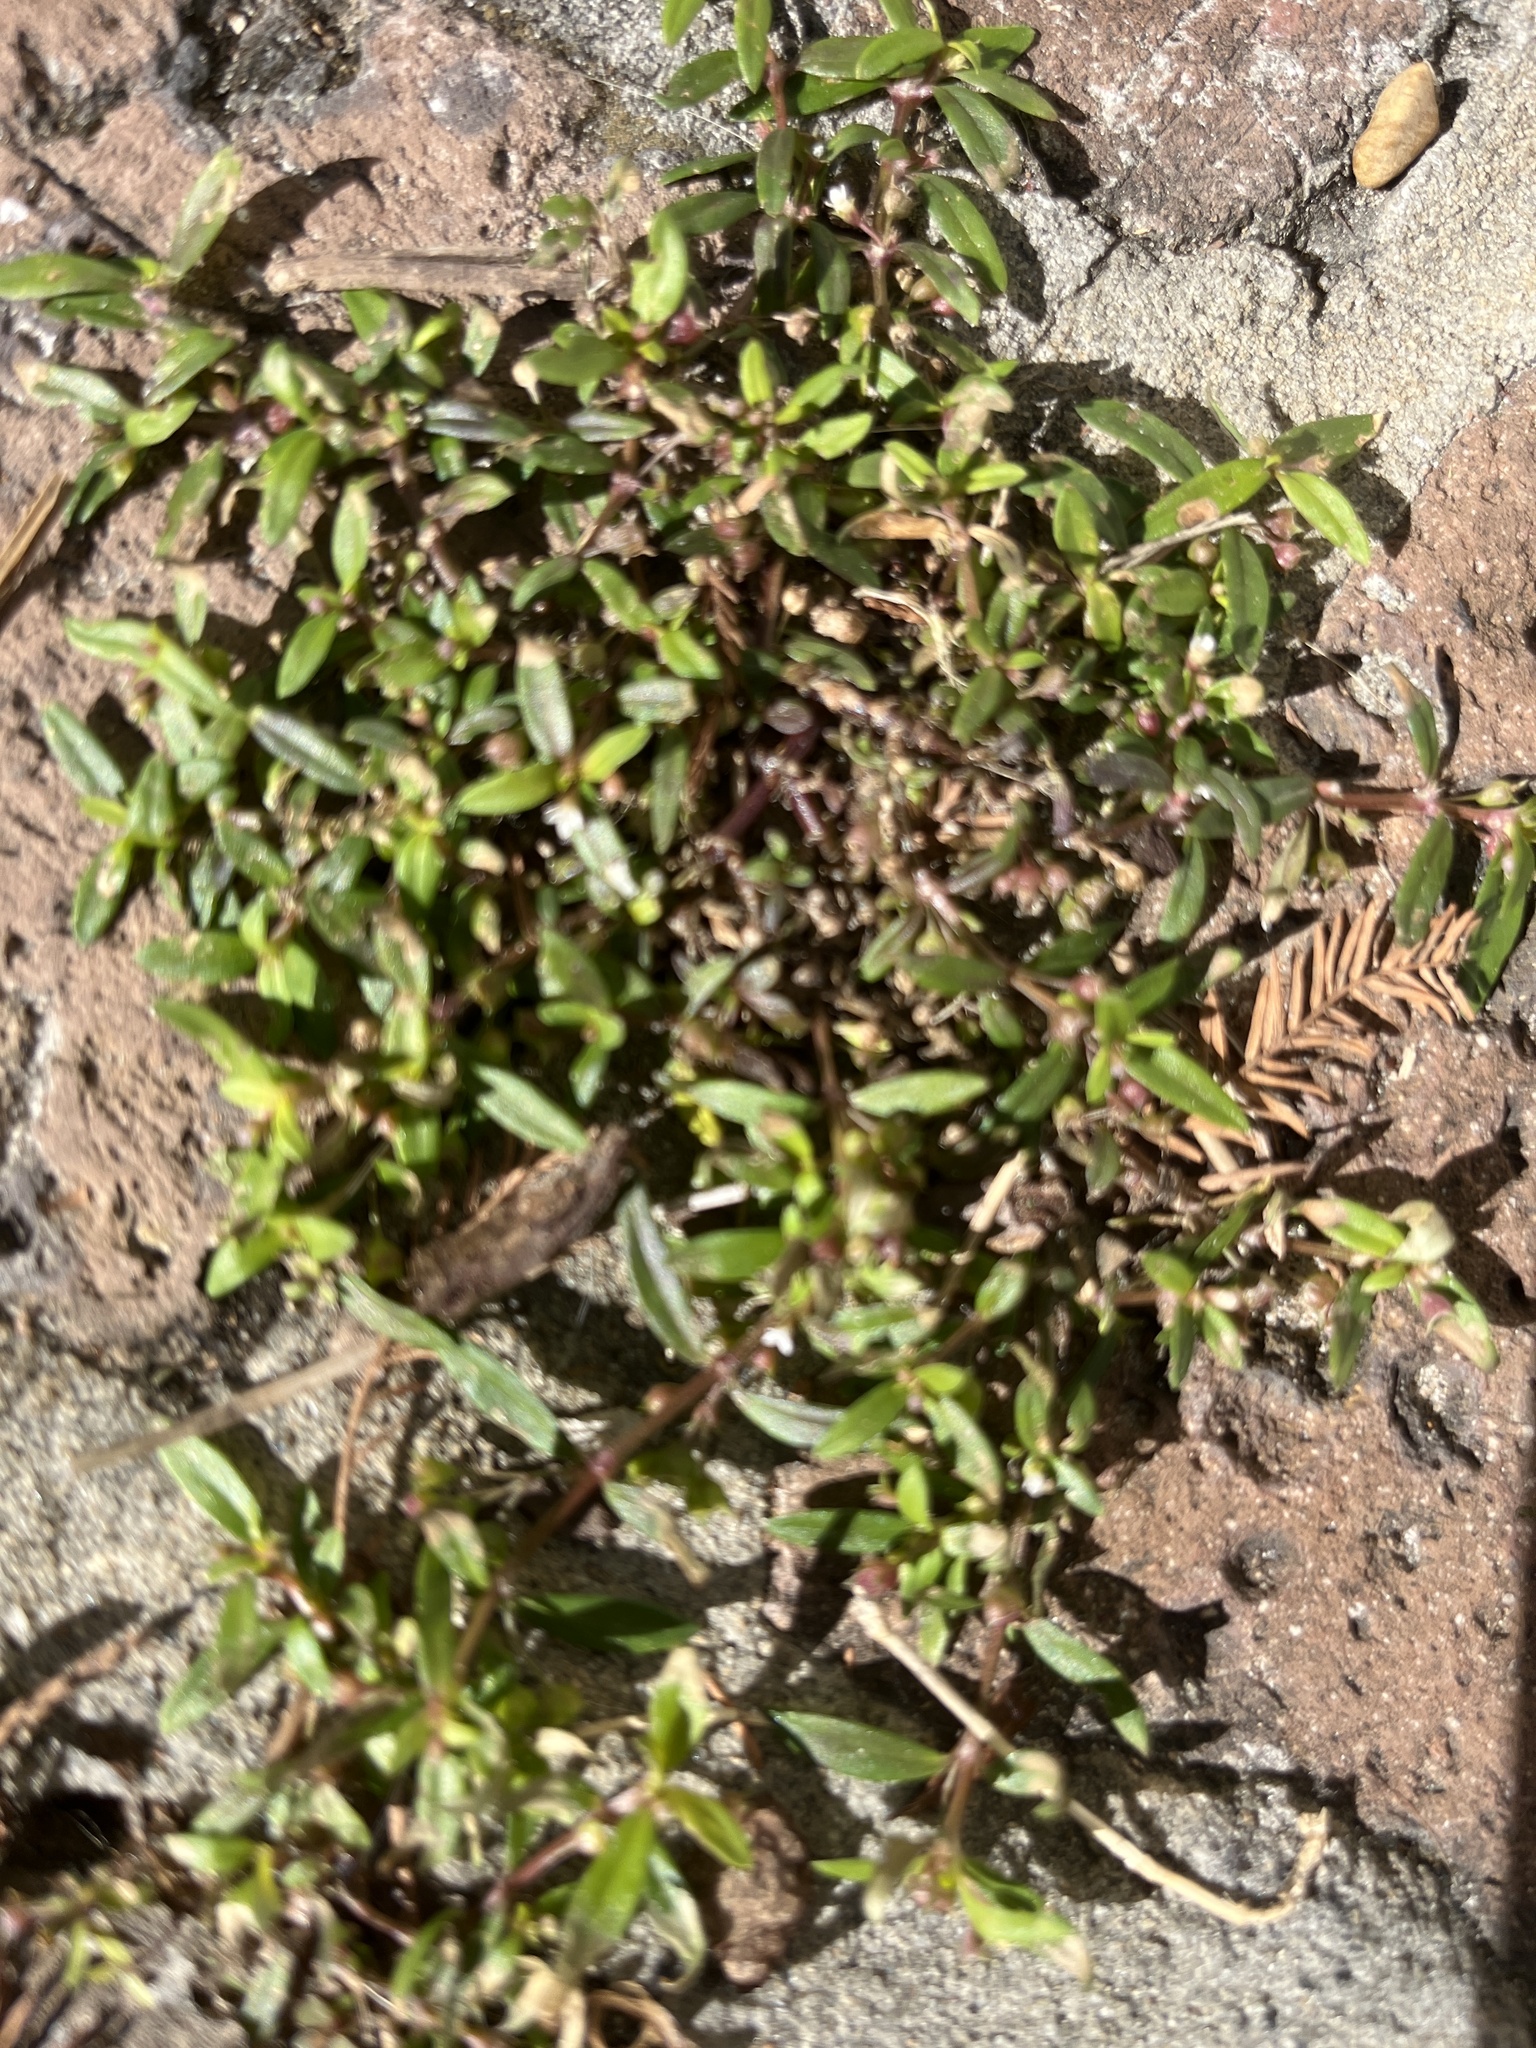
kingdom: Plantae
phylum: Tracheophyta
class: Magnoliopsida
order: Gentianales
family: Rubiaceae
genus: Oldenlandia
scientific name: Oldenlandia corymbosa
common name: Flat-top mille graines
